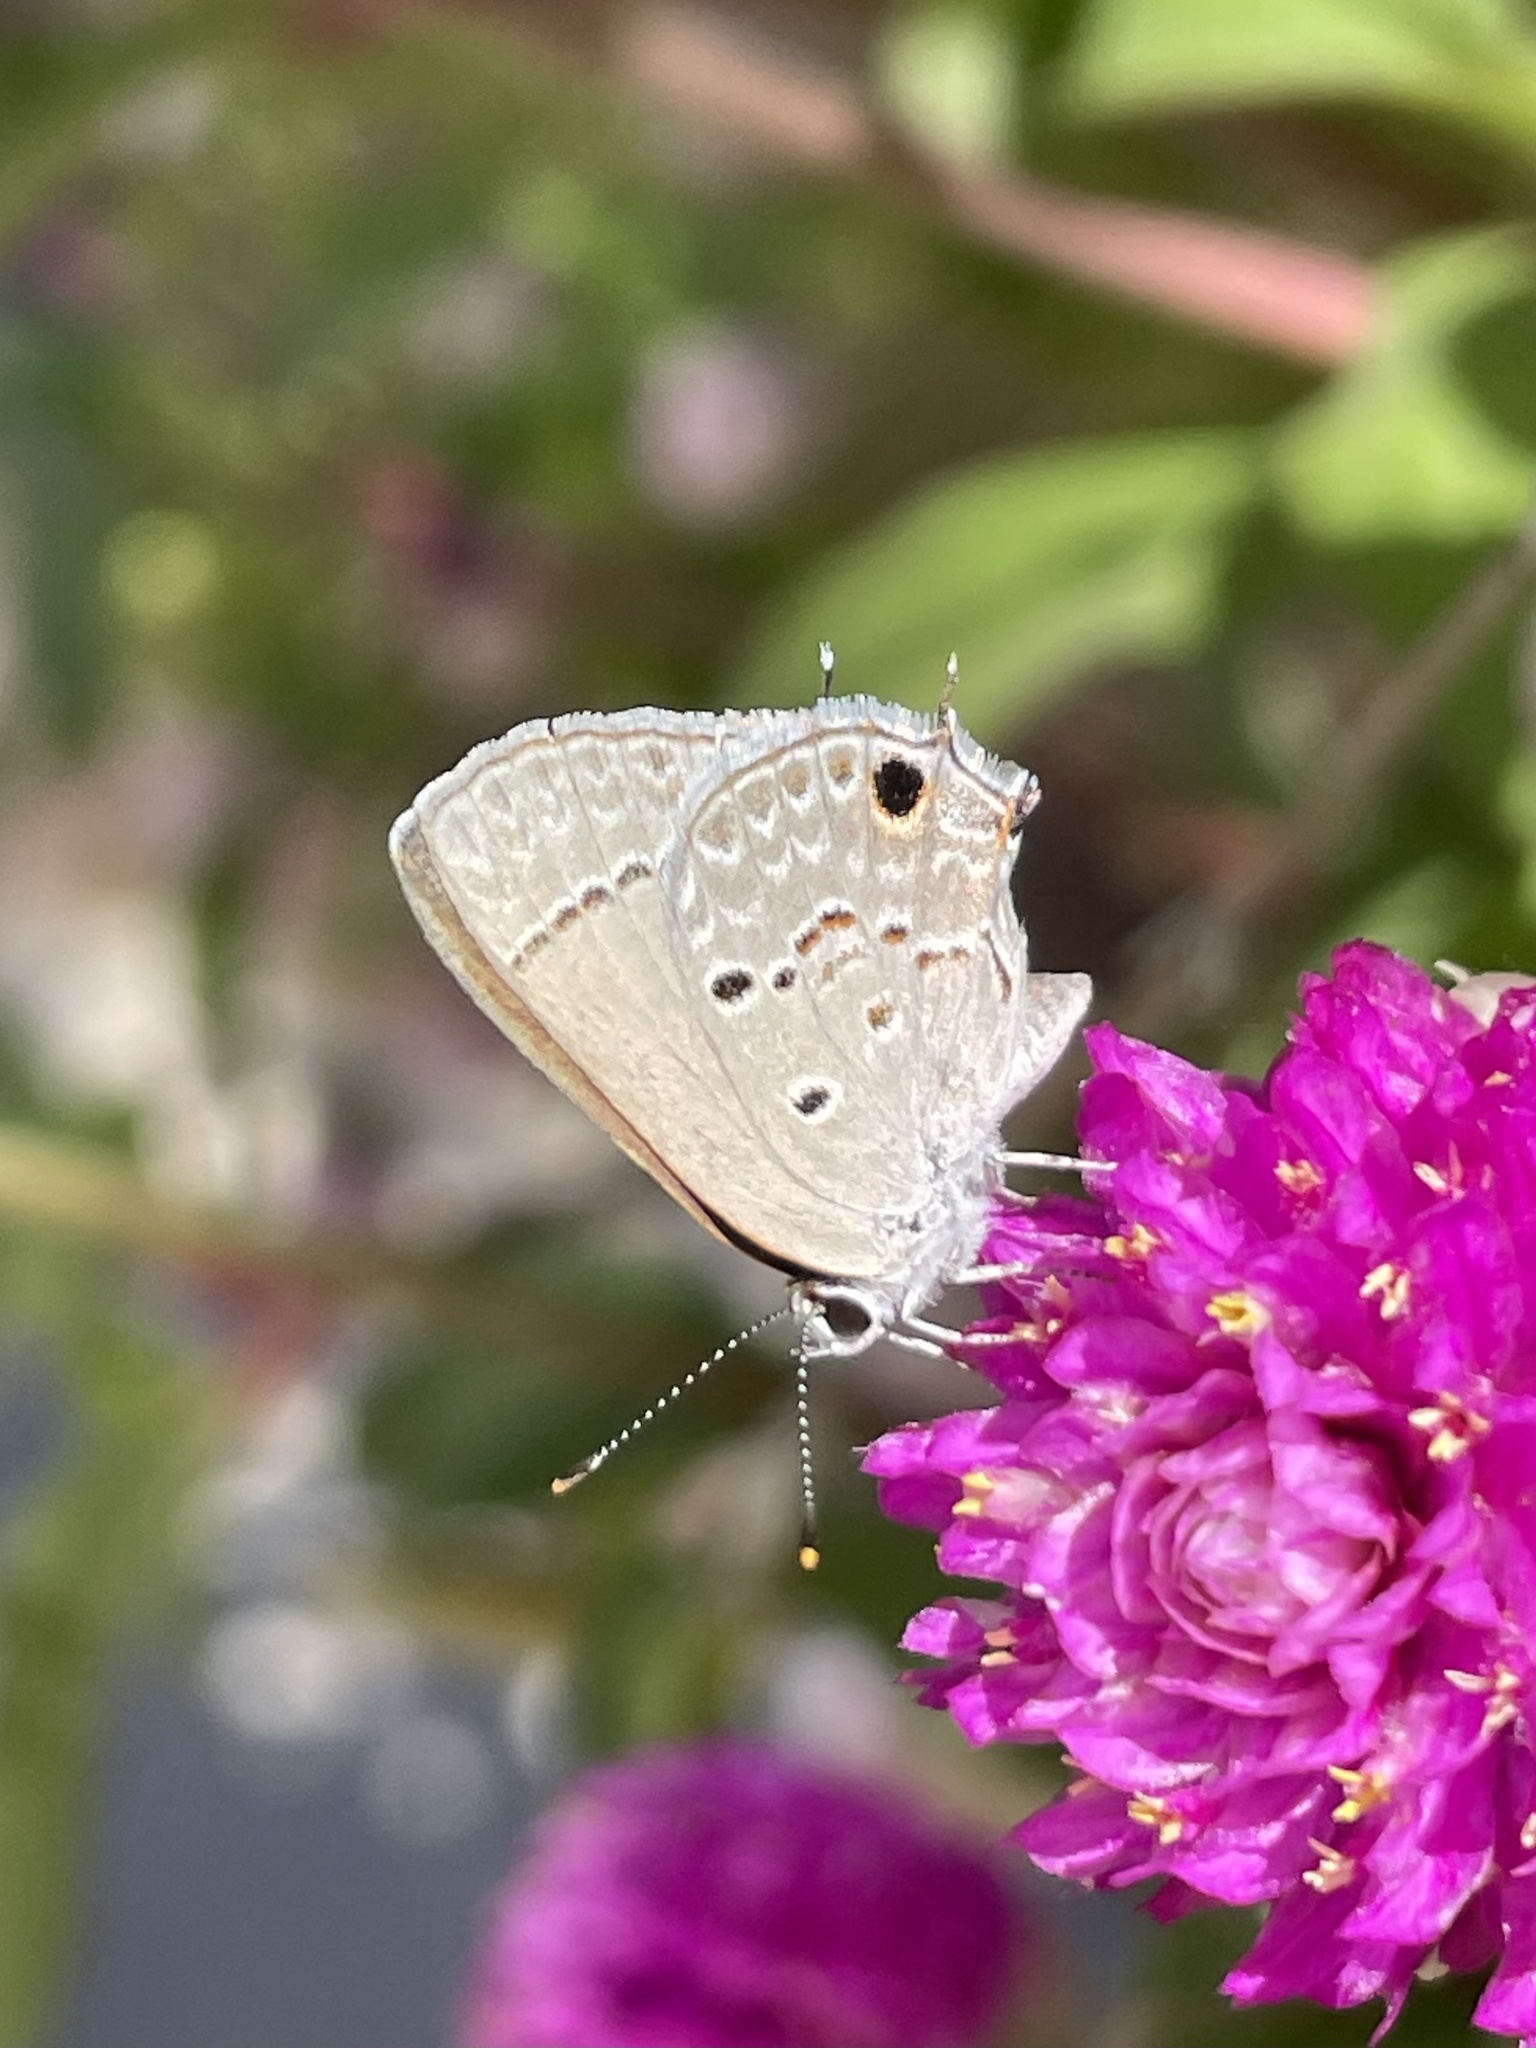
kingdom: Animalia
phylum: Arthropoda
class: Insecta
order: Lepidoptera
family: Lycaenidae
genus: Callicista
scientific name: Callicista columella
